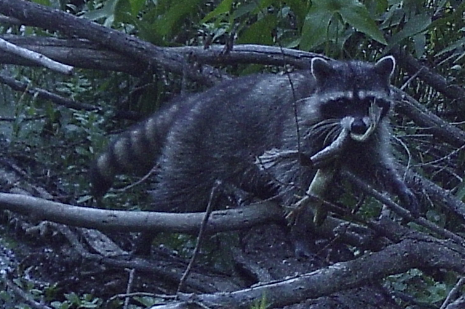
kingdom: Animalia
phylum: Chordata
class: Mammalia
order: Carnivora
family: Procyonidae
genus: Procyon
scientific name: Procyon lotor
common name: Raccoon
